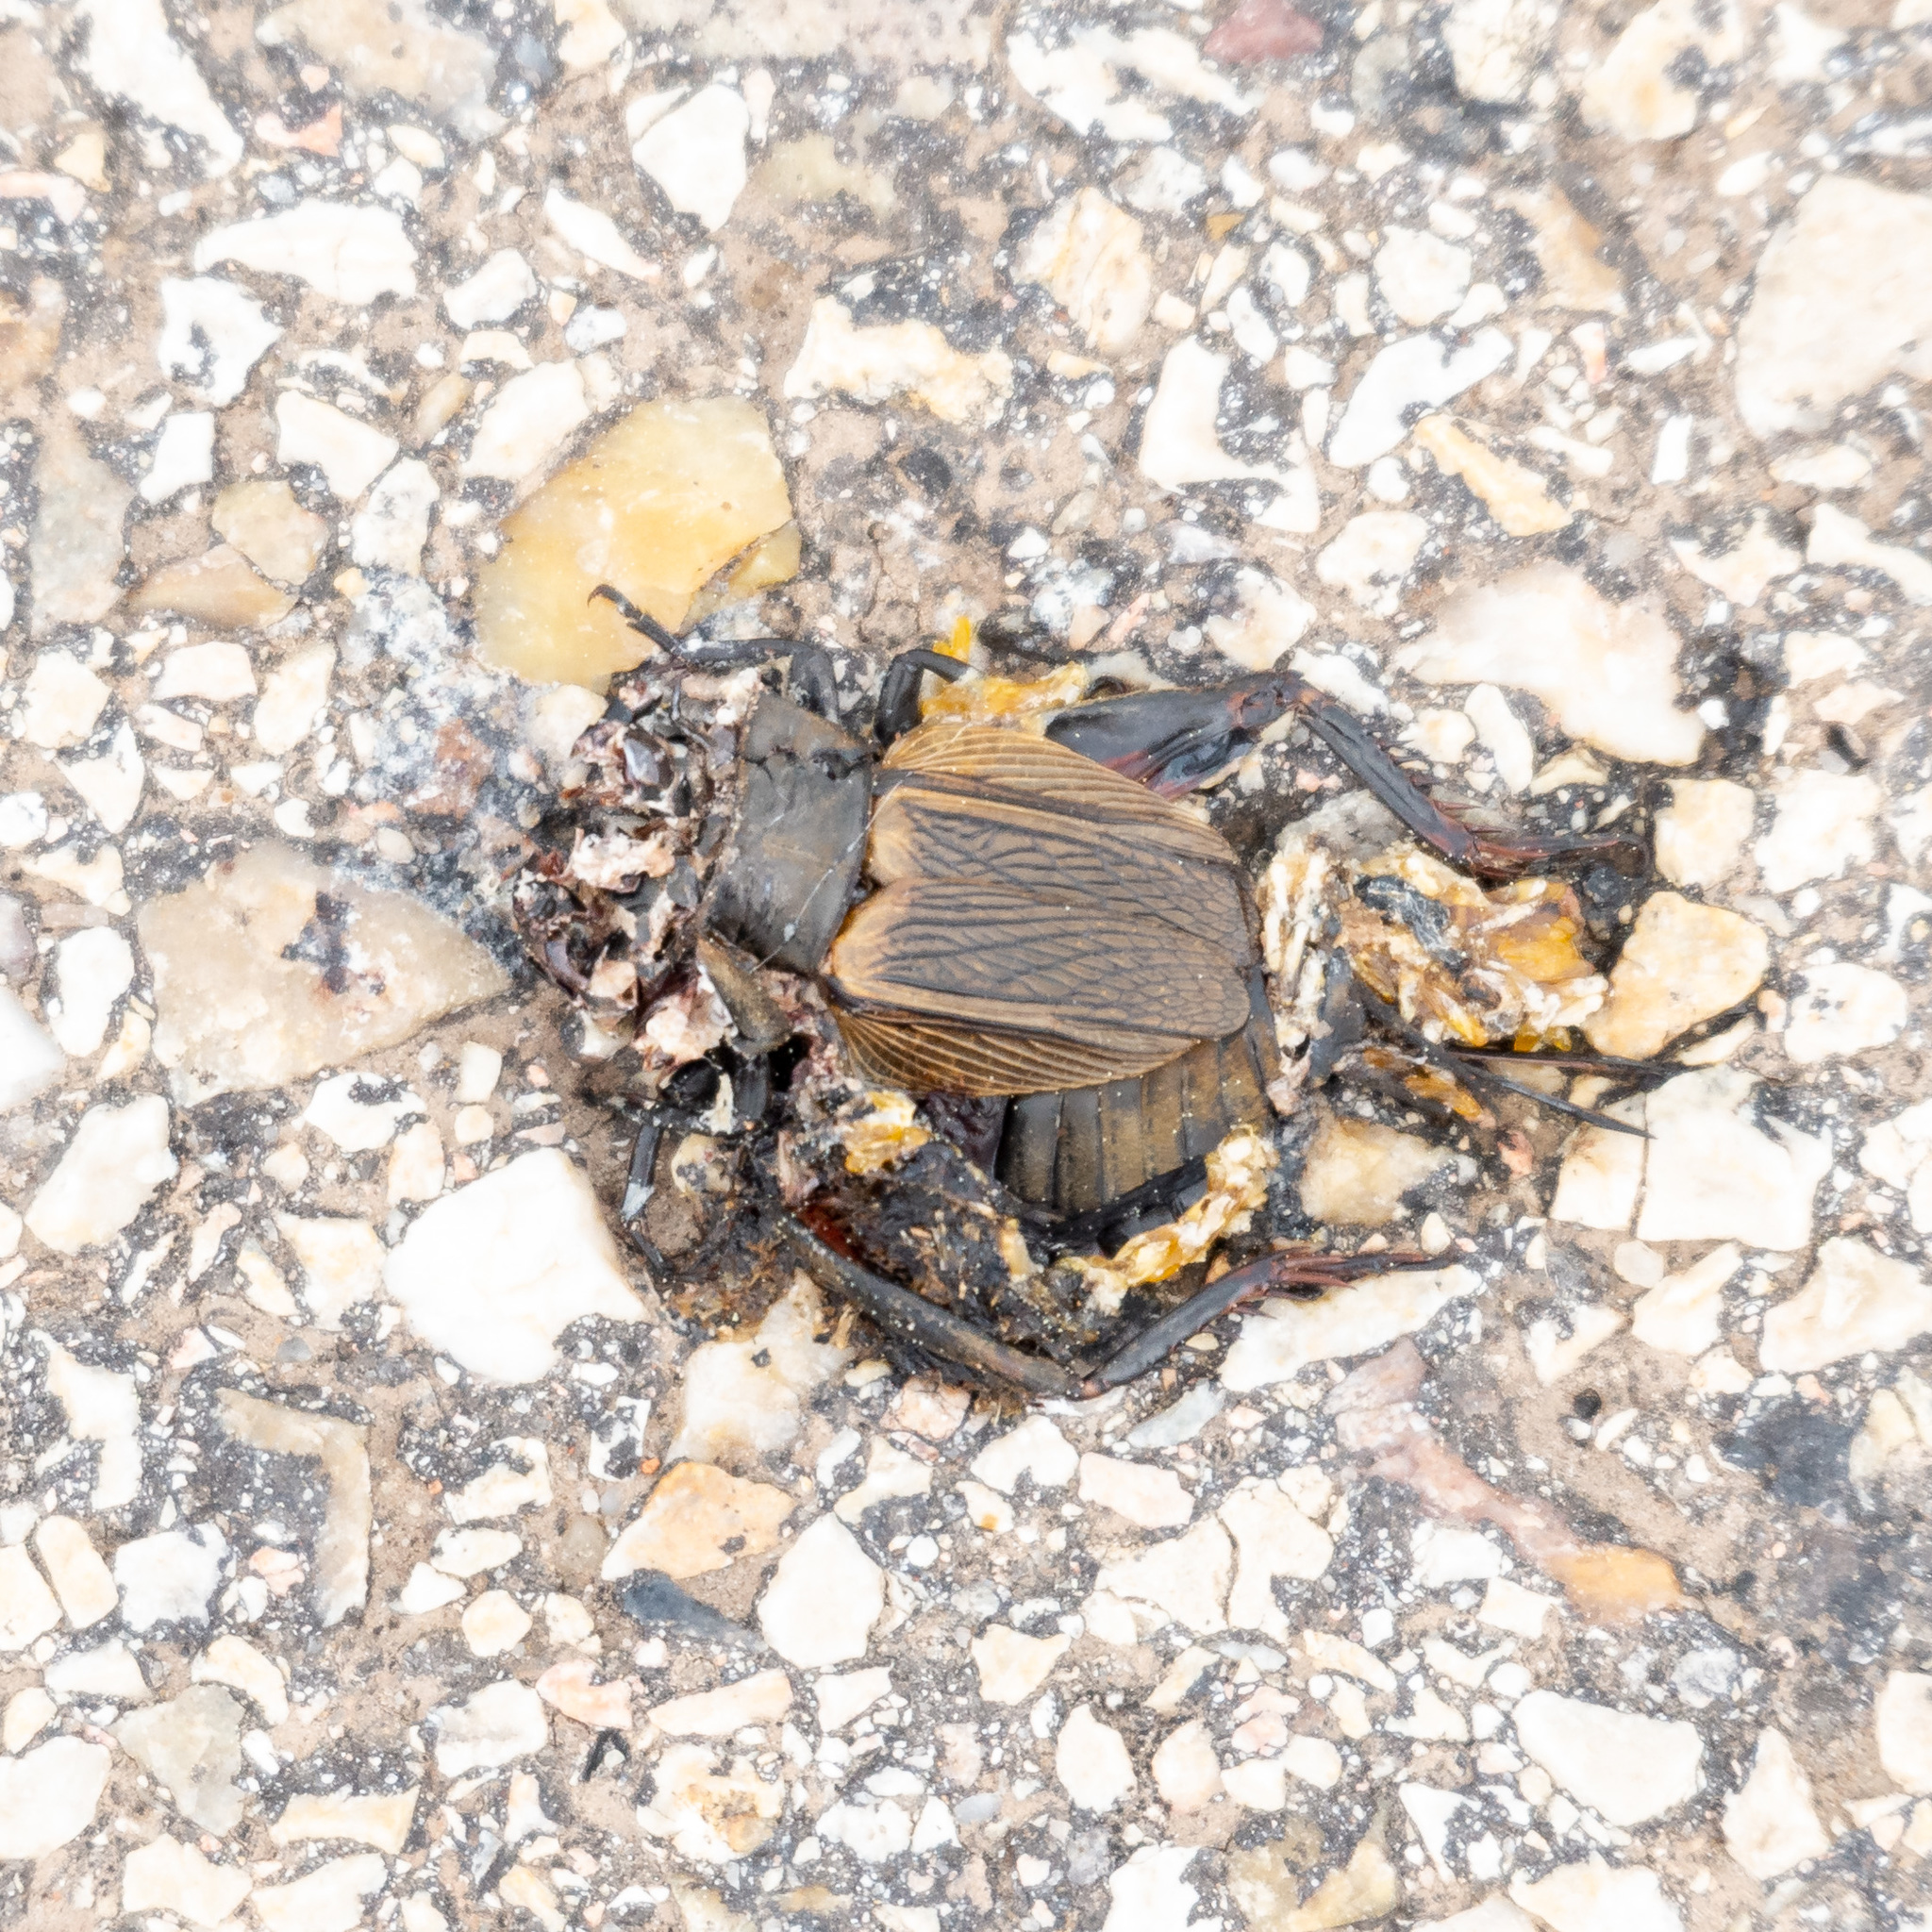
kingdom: Animalia
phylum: Arthropoda
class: Insecta
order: Orthoptera
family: Gryllidae
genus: Gryllus
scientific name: Gryllus campestris
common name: Field cricket
